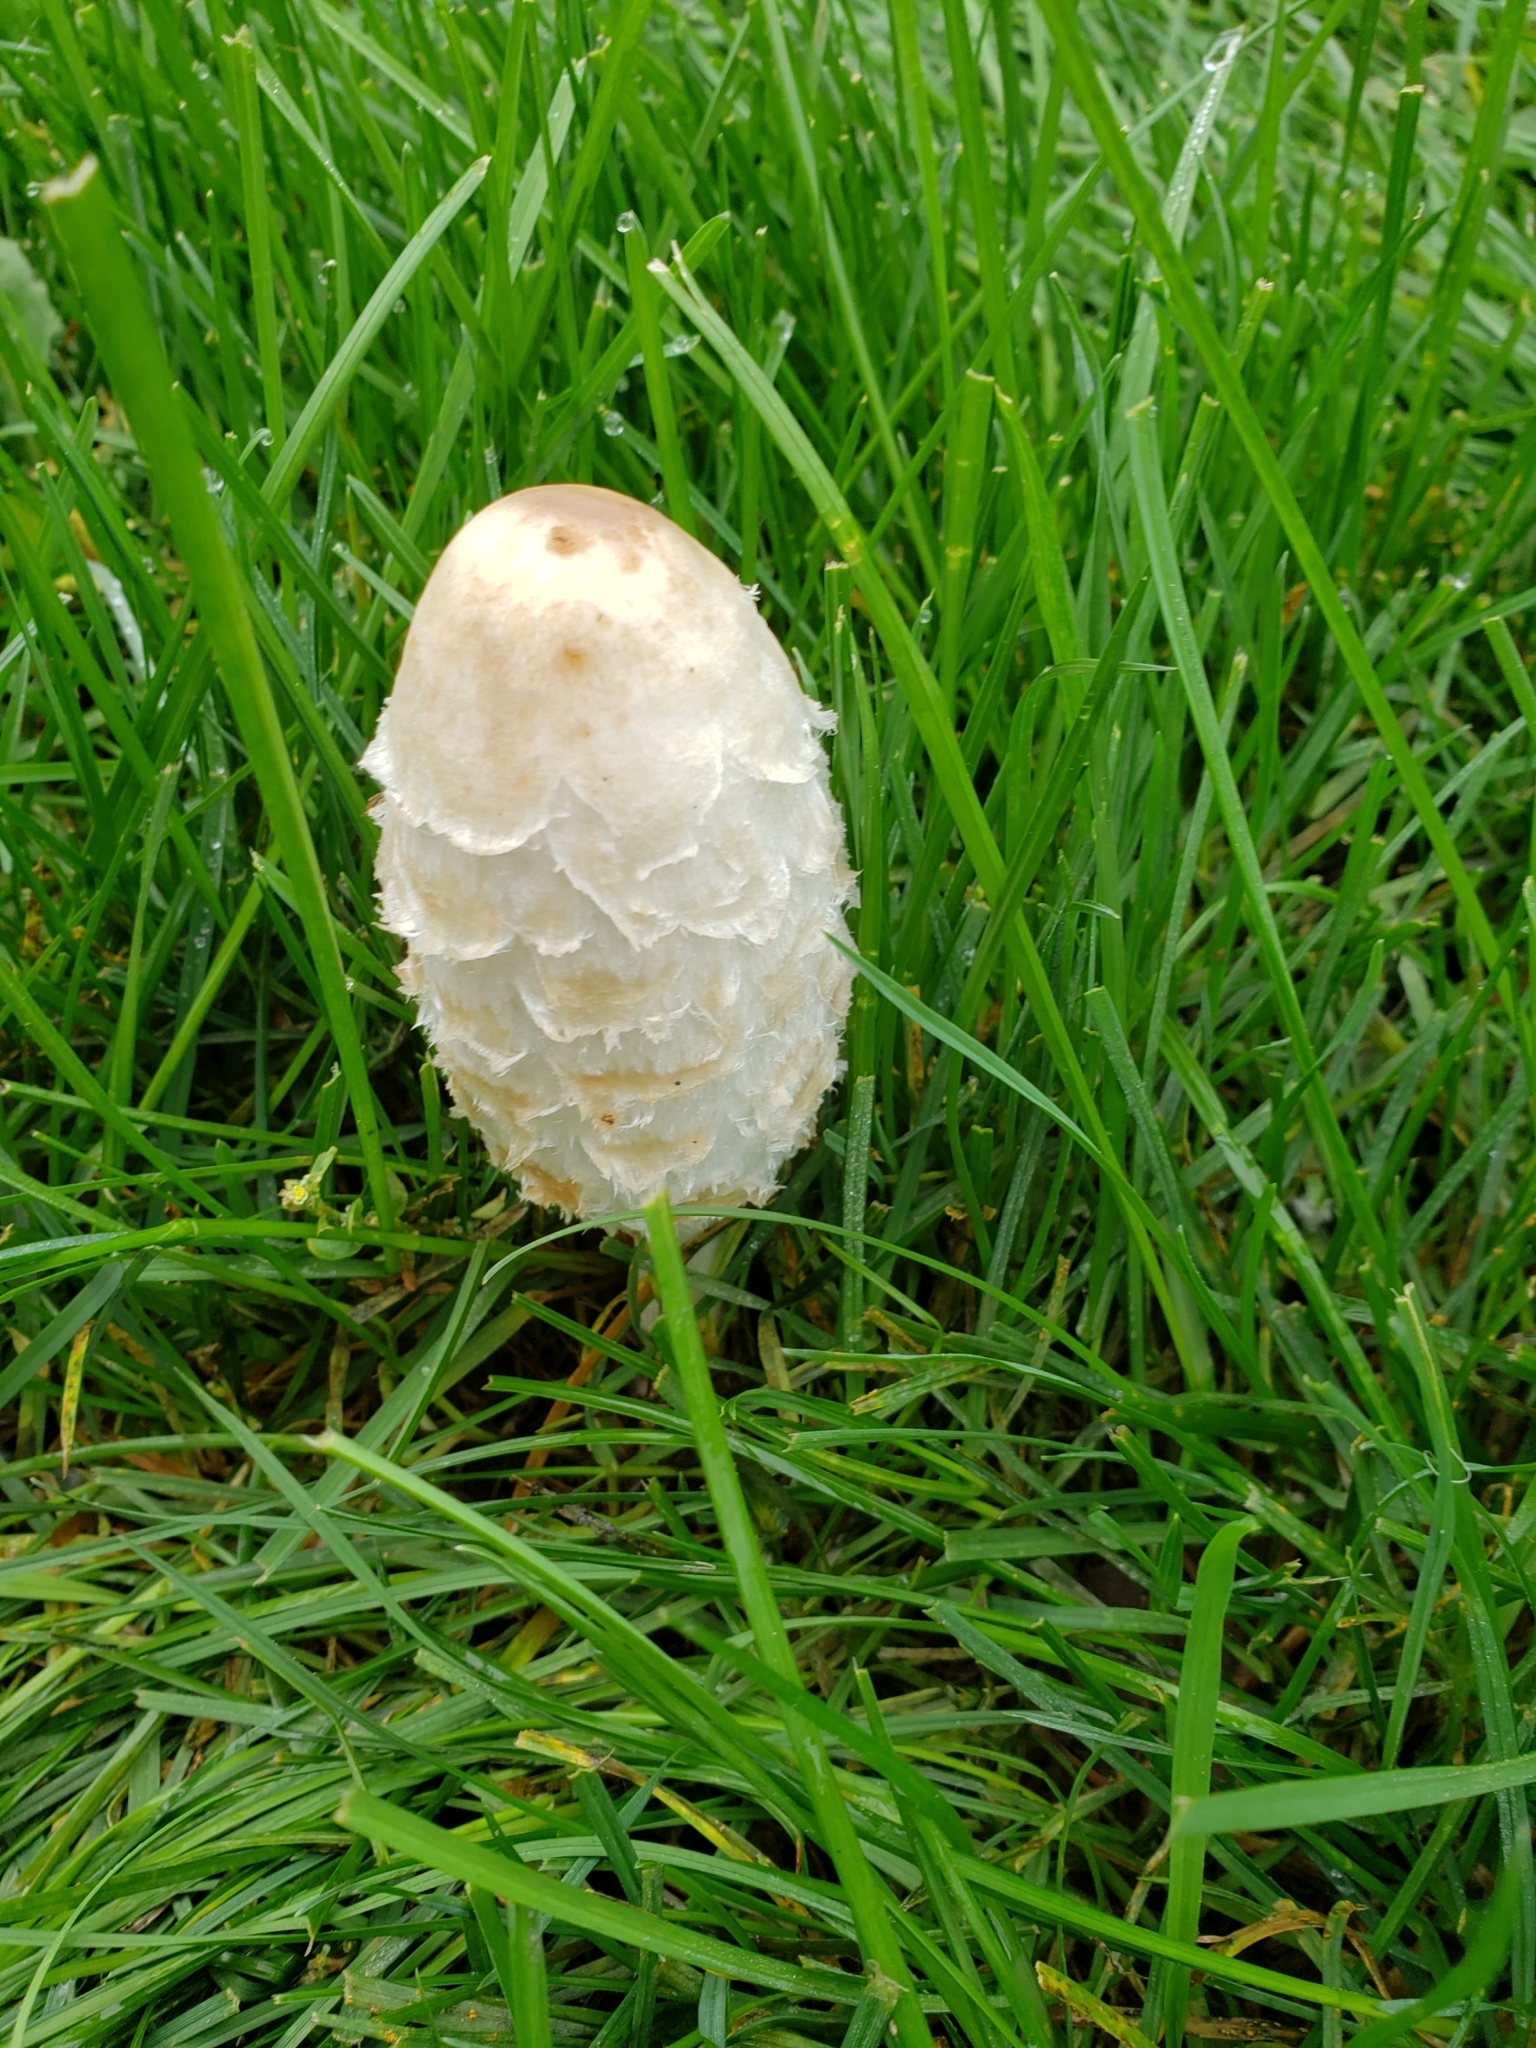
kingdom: Fungi
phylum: Basidiomycota
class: Agaricomycetes
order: Agaricales
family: Agaricaceae
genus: Coprinus
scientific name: Coprinus comatus
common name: Lawyer's wig
